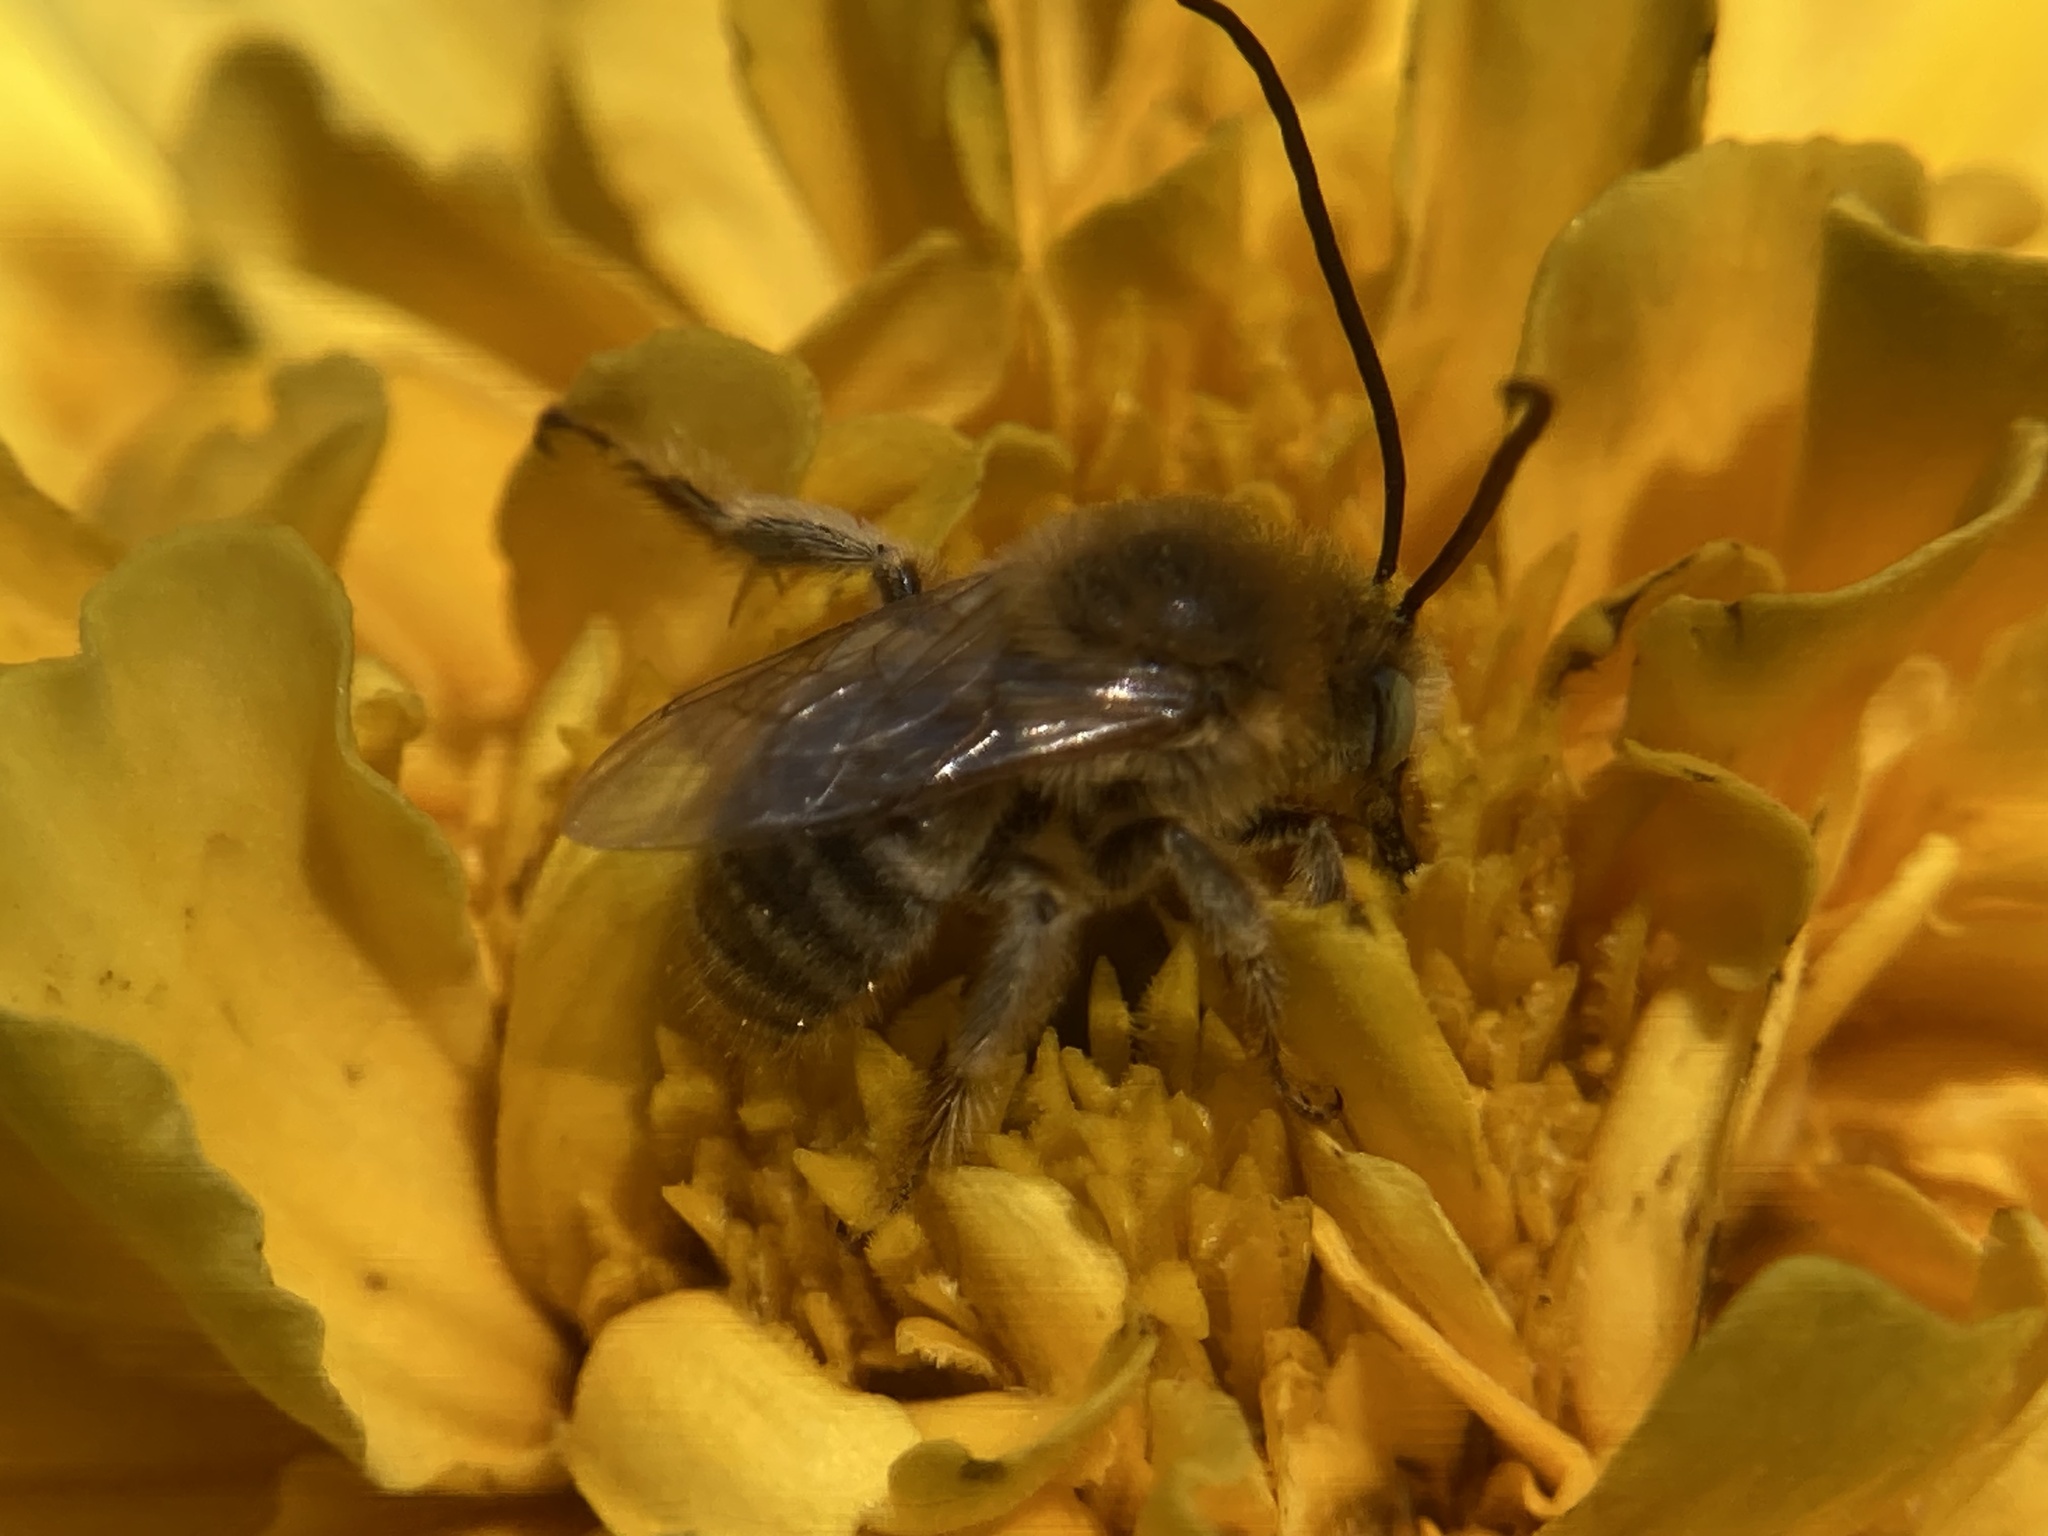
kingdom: Animalia
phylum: Arthropoda
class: Insecta
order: Hymenoptera
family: Apidae
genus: Melissodes
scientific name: Melissodes trinodis
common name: Dark-veined longhorn
